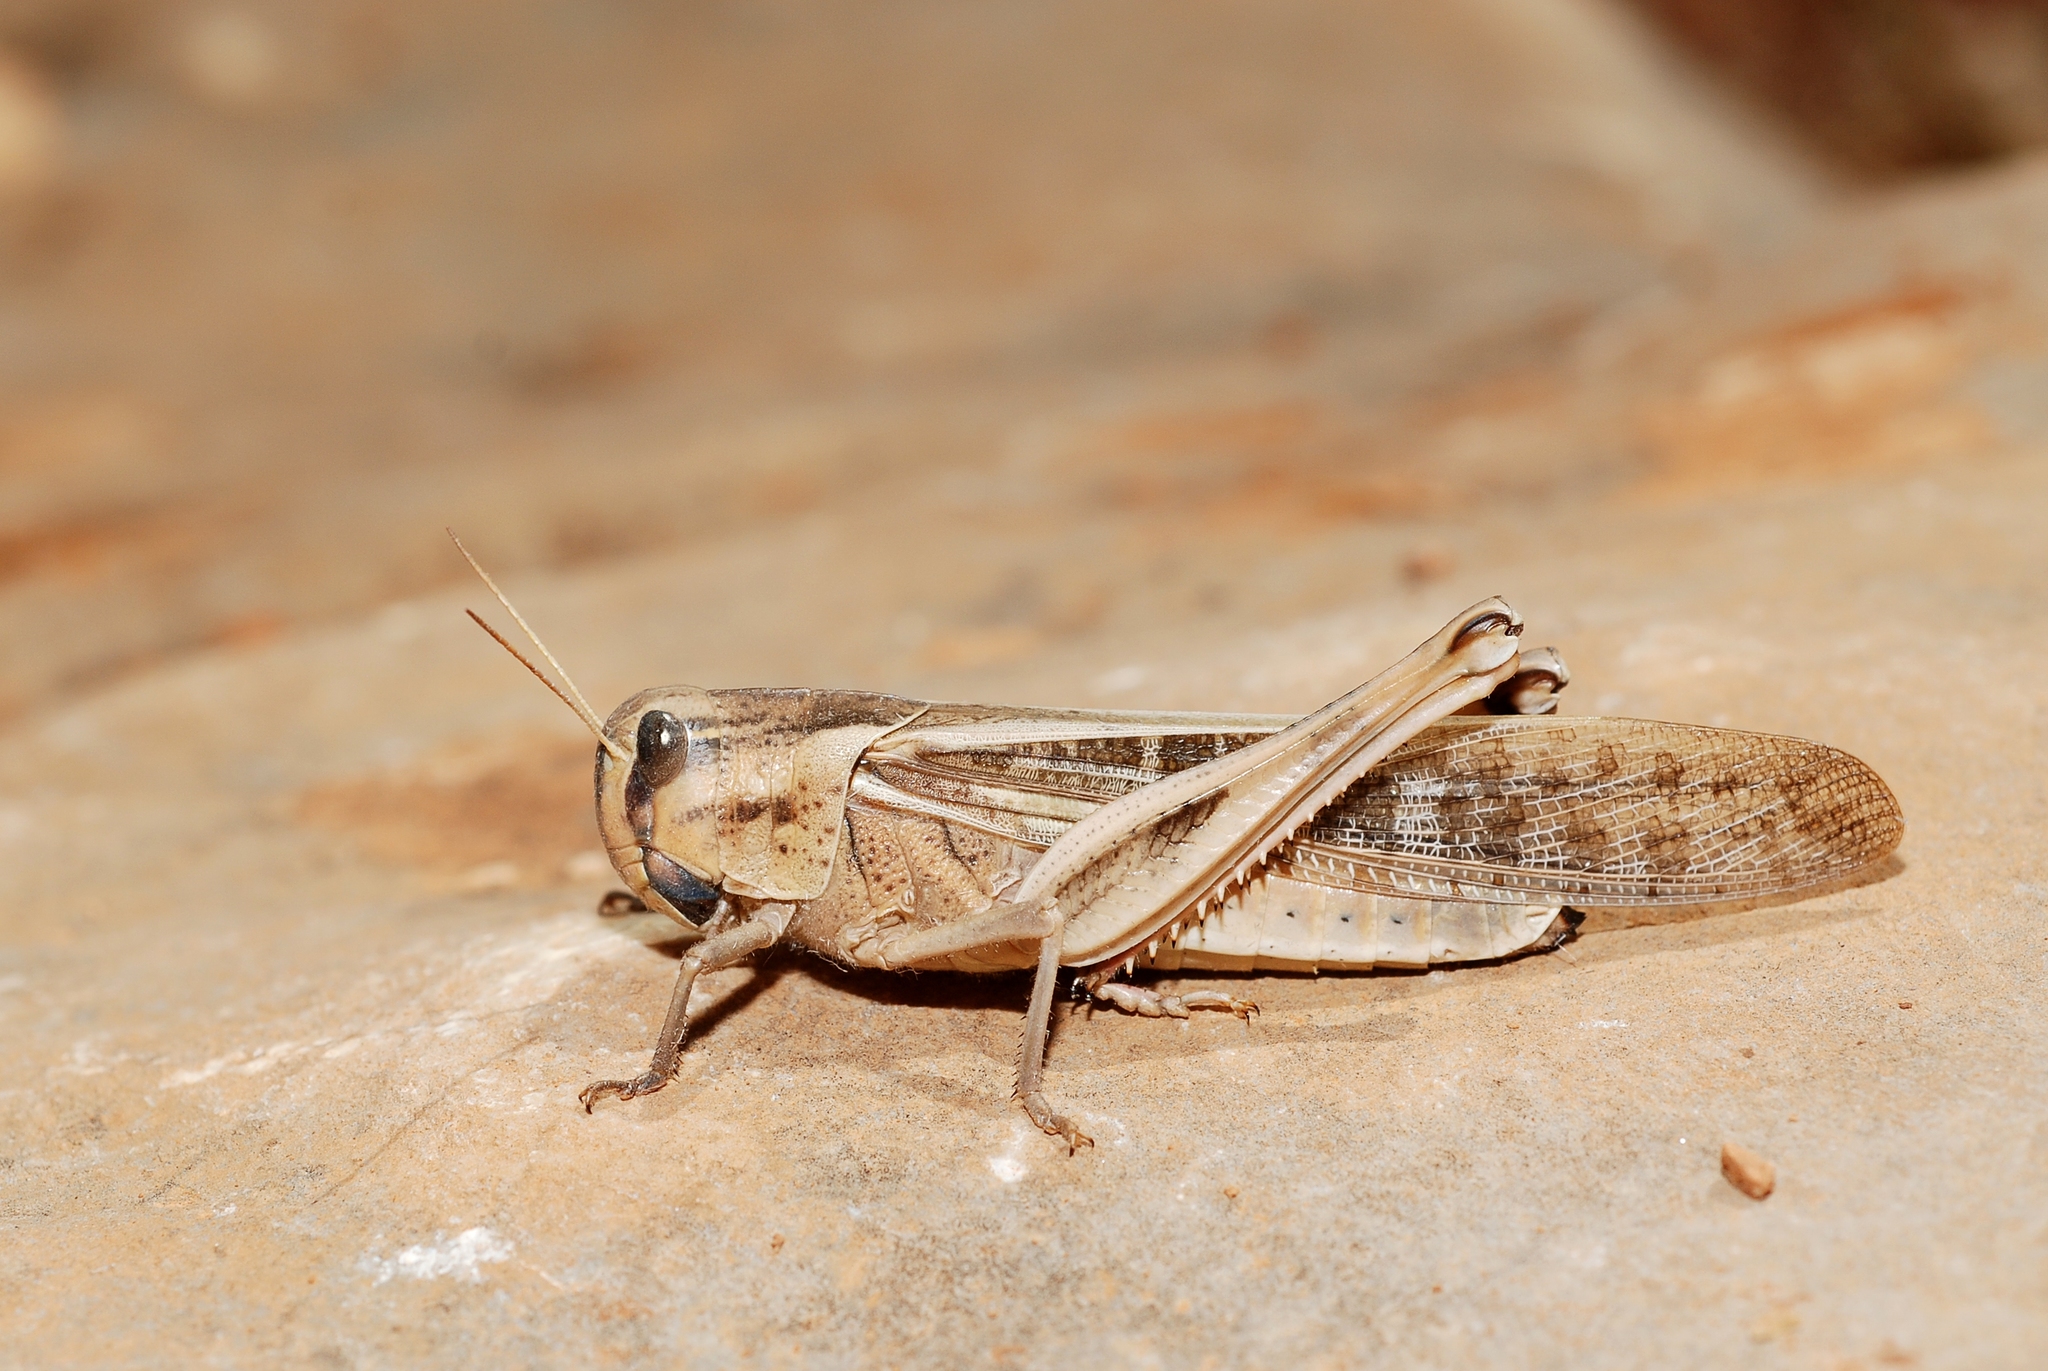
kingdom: Animalia
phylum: Arthropoda
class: Insecta
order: Orthoptera
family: Acrididae
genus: Locusta
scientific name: Locusta migratoria
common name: Migratory locust
